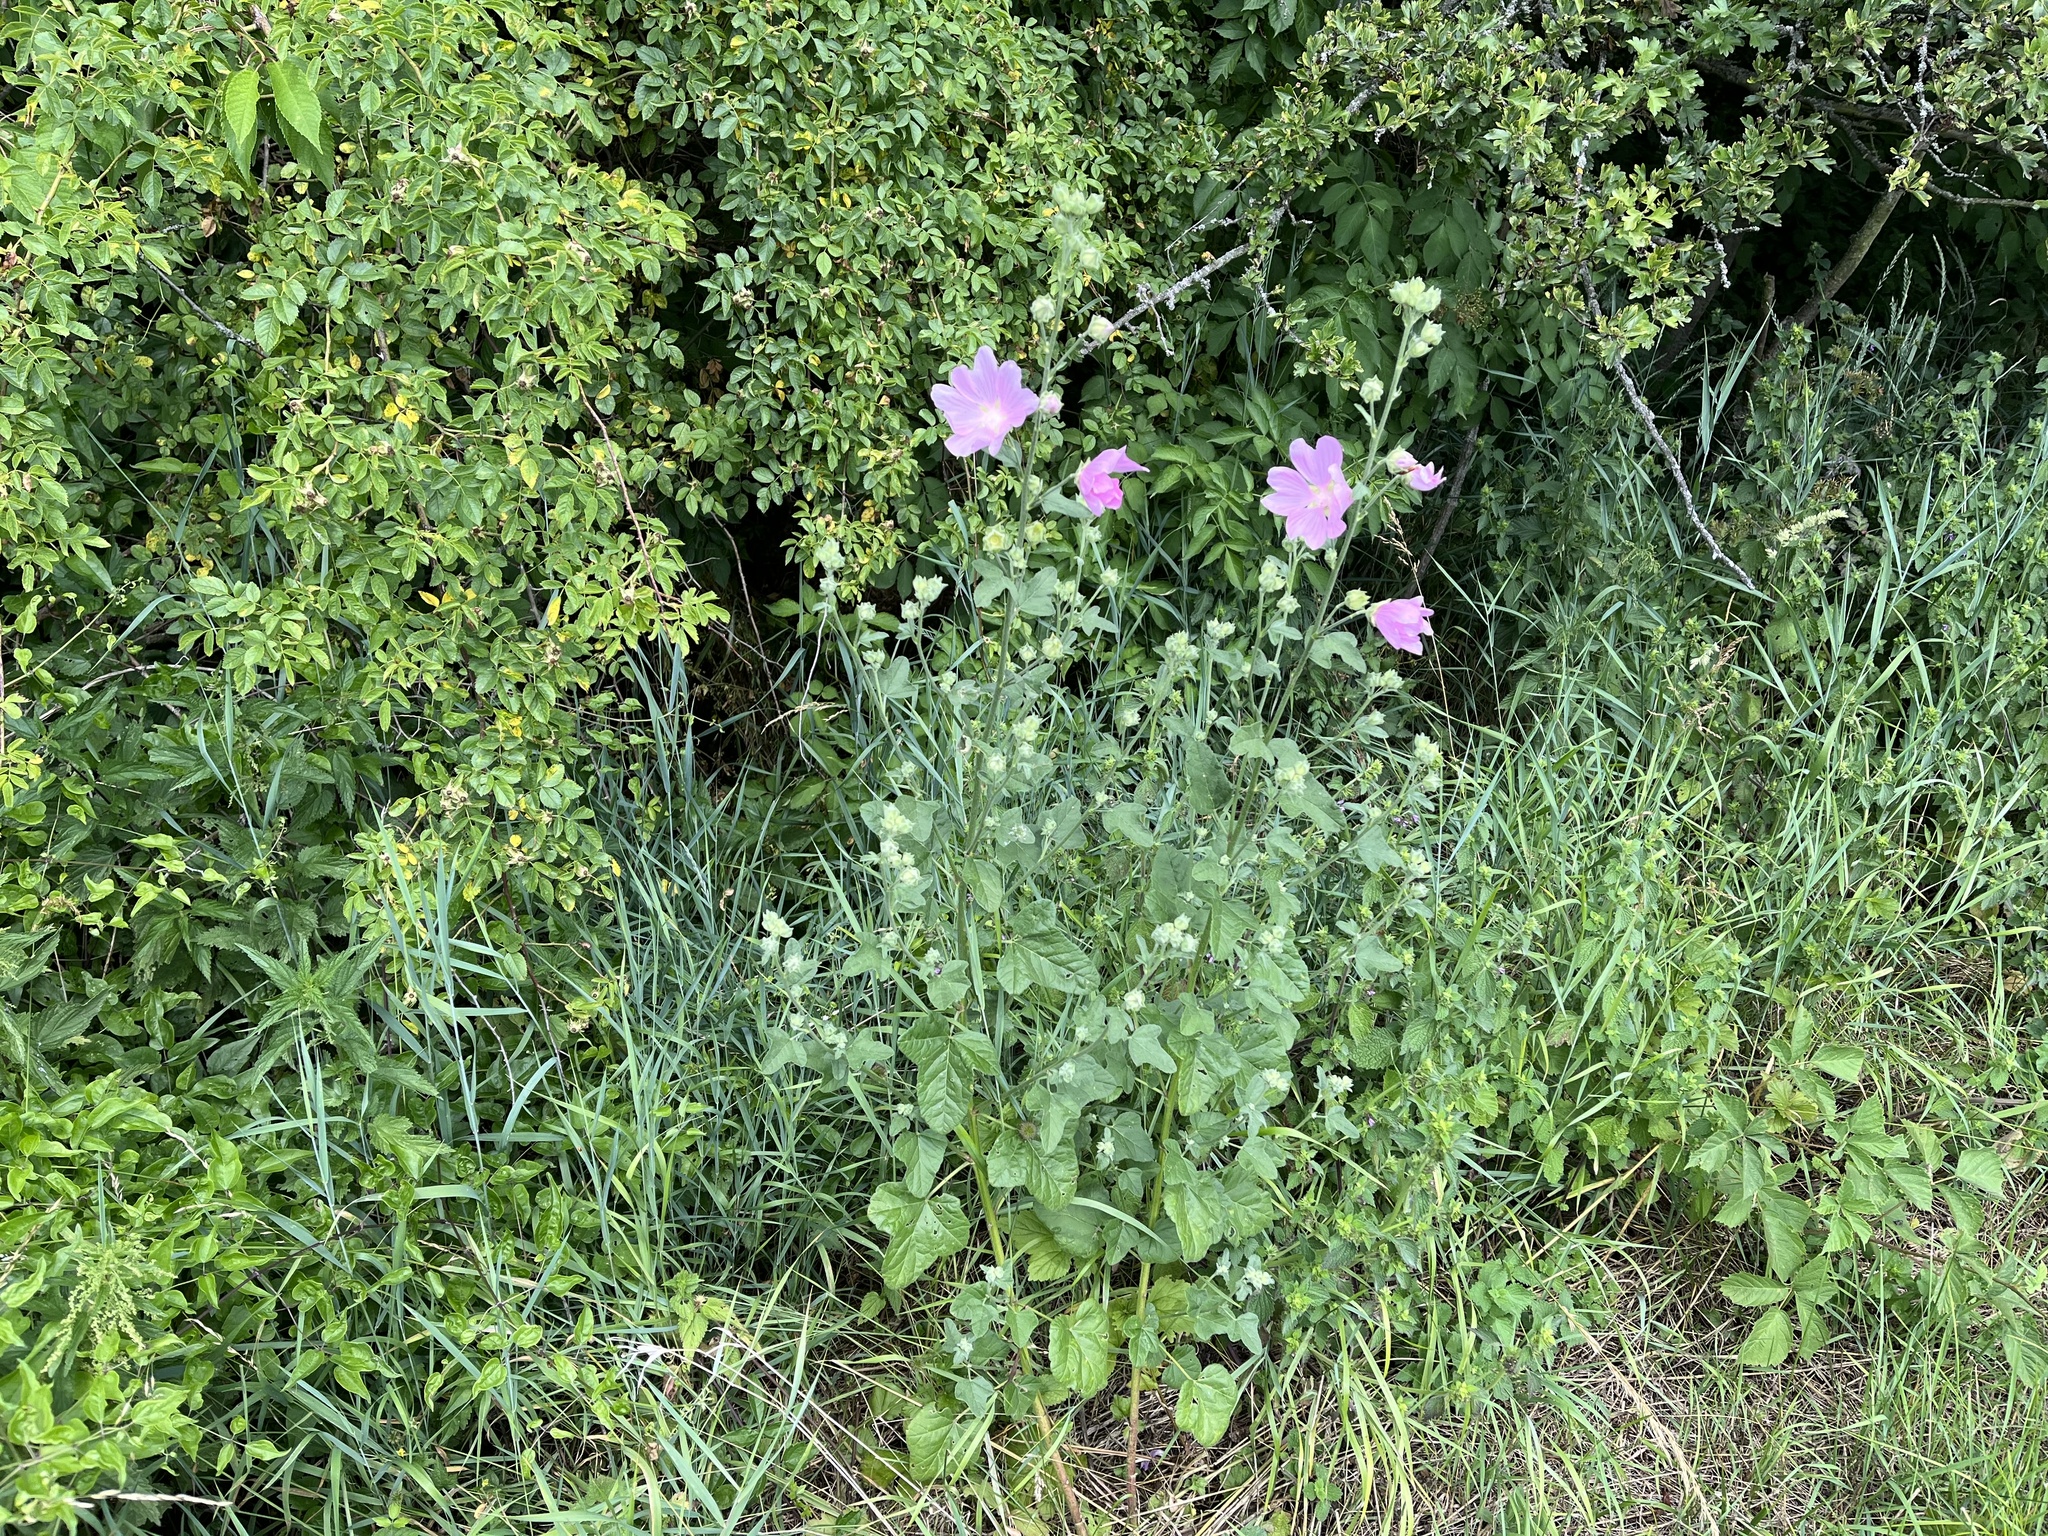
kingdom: Plantae
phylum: Tracheophyta
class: Magnoliopsida
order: Malvales
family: Malvaceae
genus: Malva
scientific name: Malva thuringiaca
